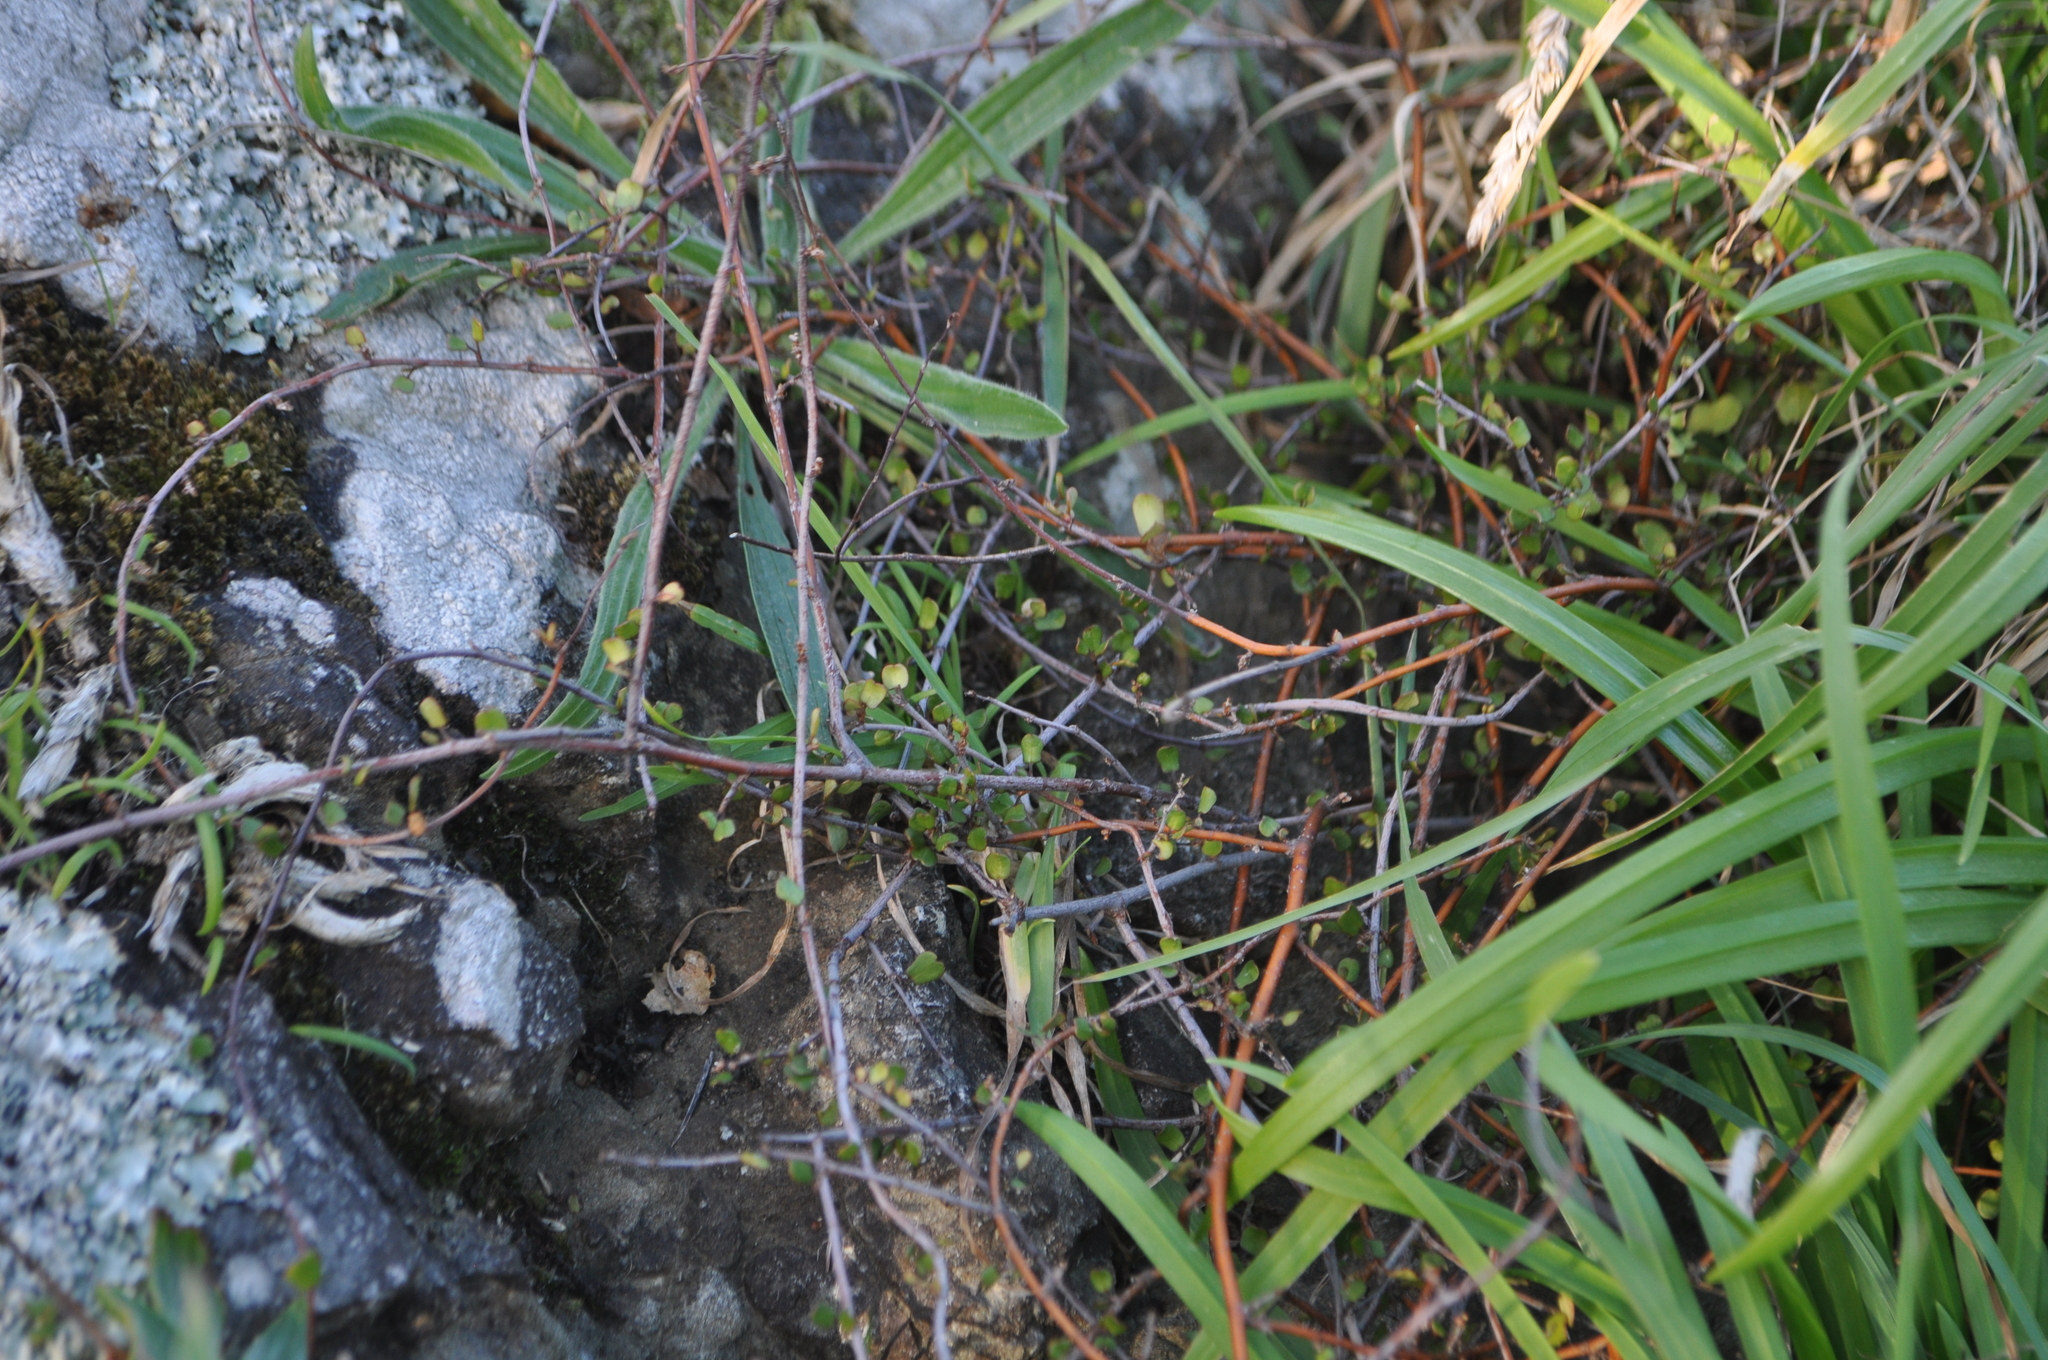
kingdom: Plantae
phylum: Tracheophyta
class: Magnoliopsida
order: Caryophyllales
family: Polygonaceae
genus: Muehlenbeckia
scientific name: Muehlenbeckia complexa
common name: Wireplant
